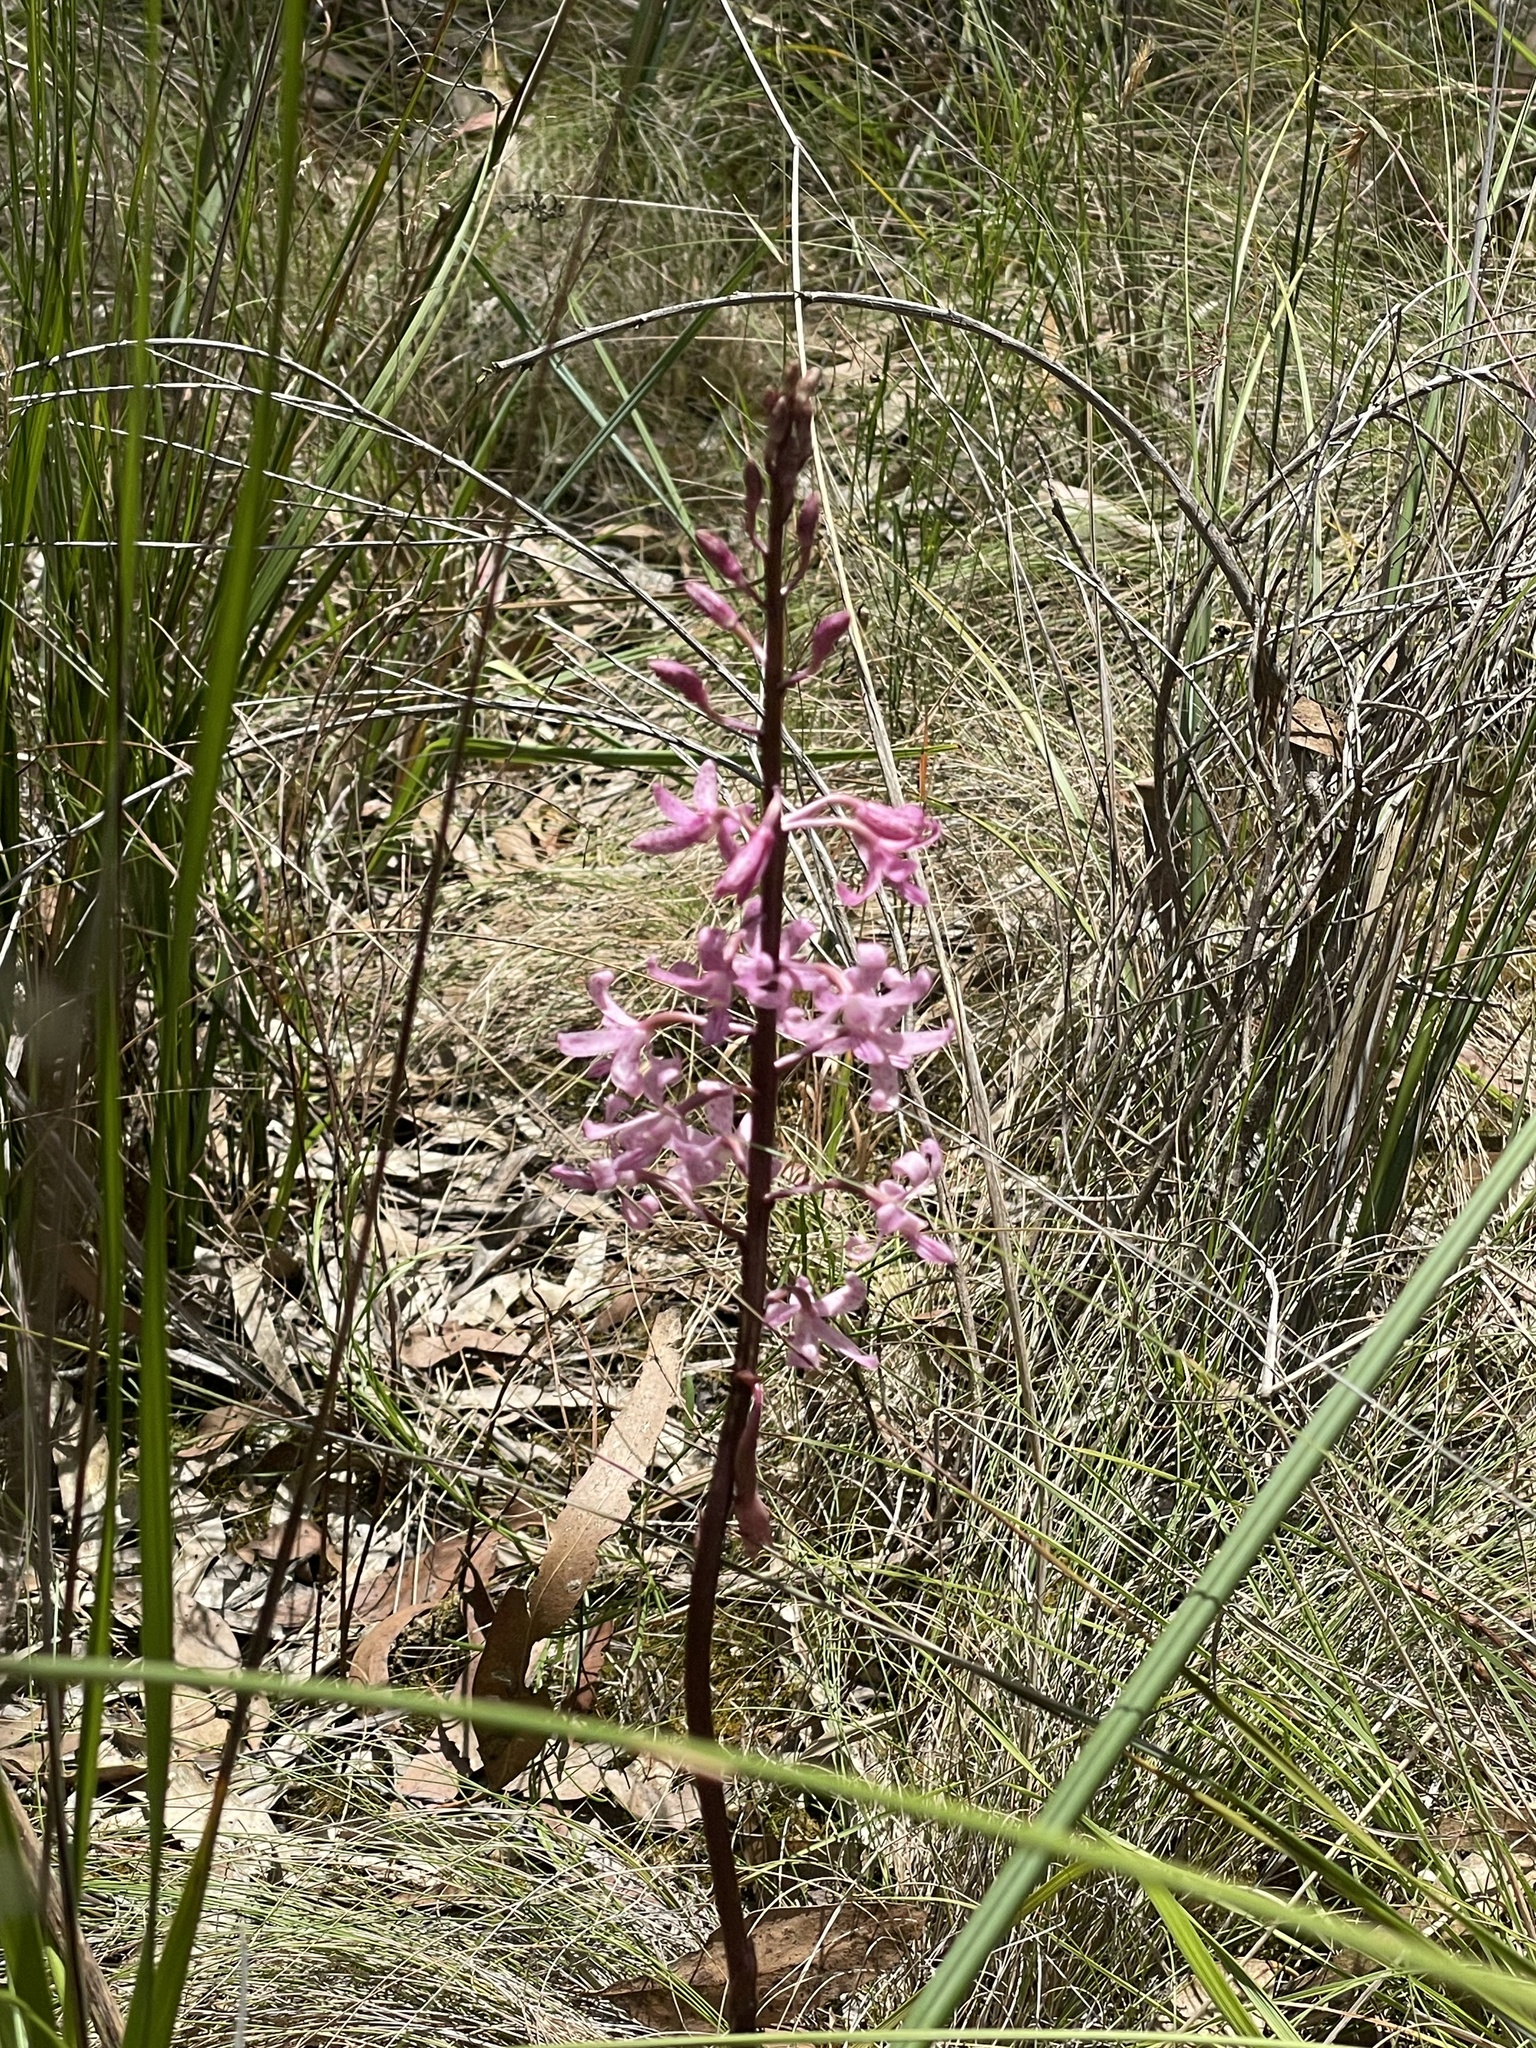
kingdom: Plantae
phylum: Tracheophyta
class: Liliopsida
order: Asparagales
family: Orchidaceae
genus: Dipodium
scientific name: Dipodium roseum
